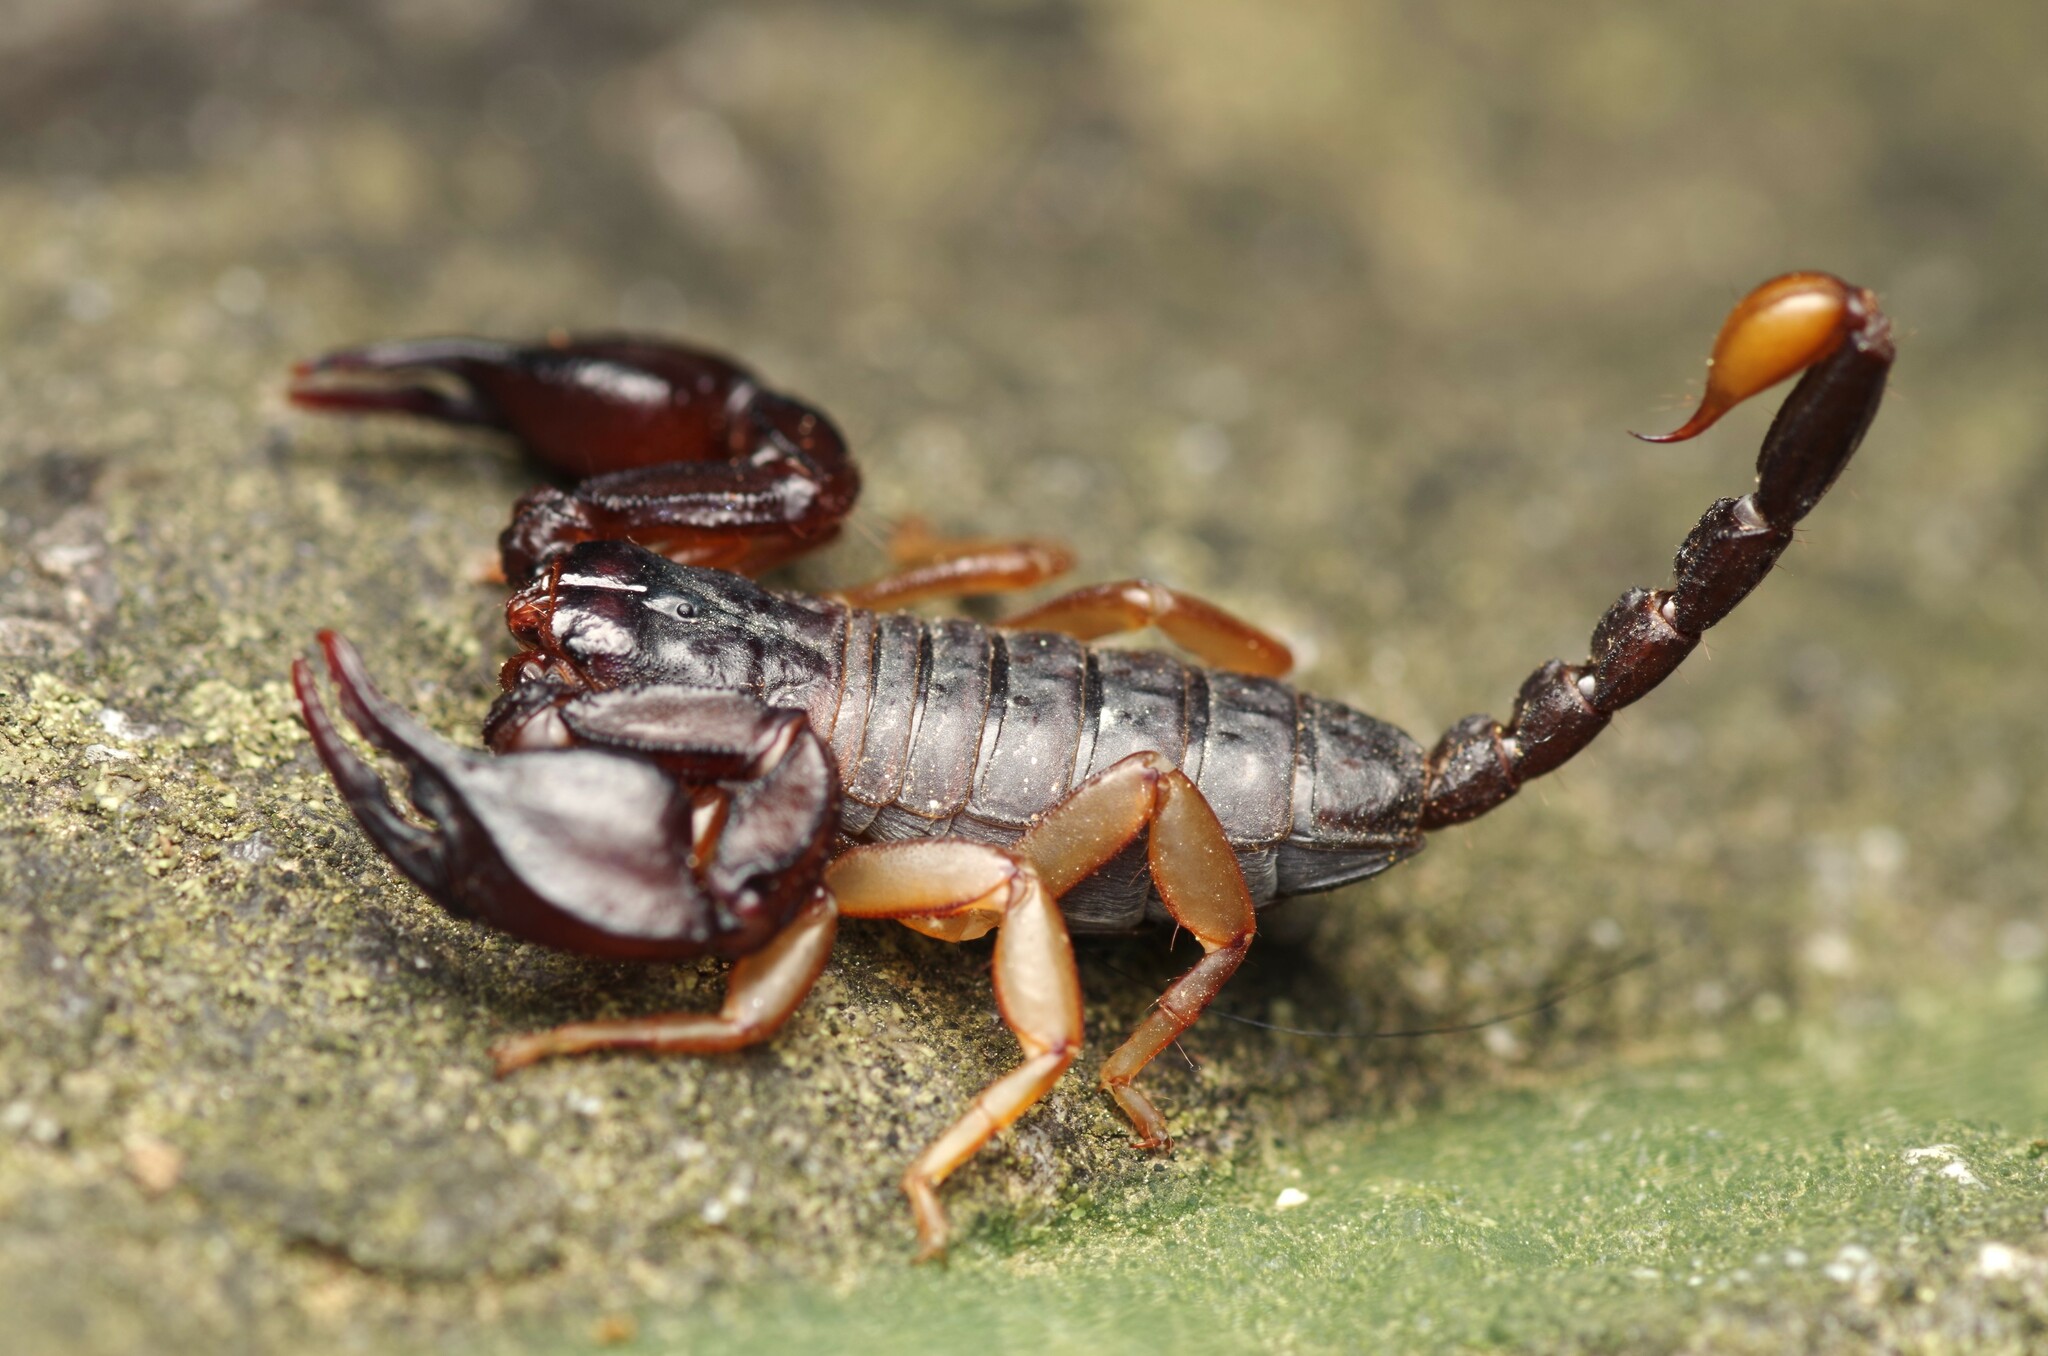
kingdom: Animalia
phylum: Arthropoda
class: Arachnida
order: Scorpiones
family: Euscorpiidae
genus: Euscorpius
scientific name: Euscorpius flavicaudis
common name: European yellow-tailed scorpion
